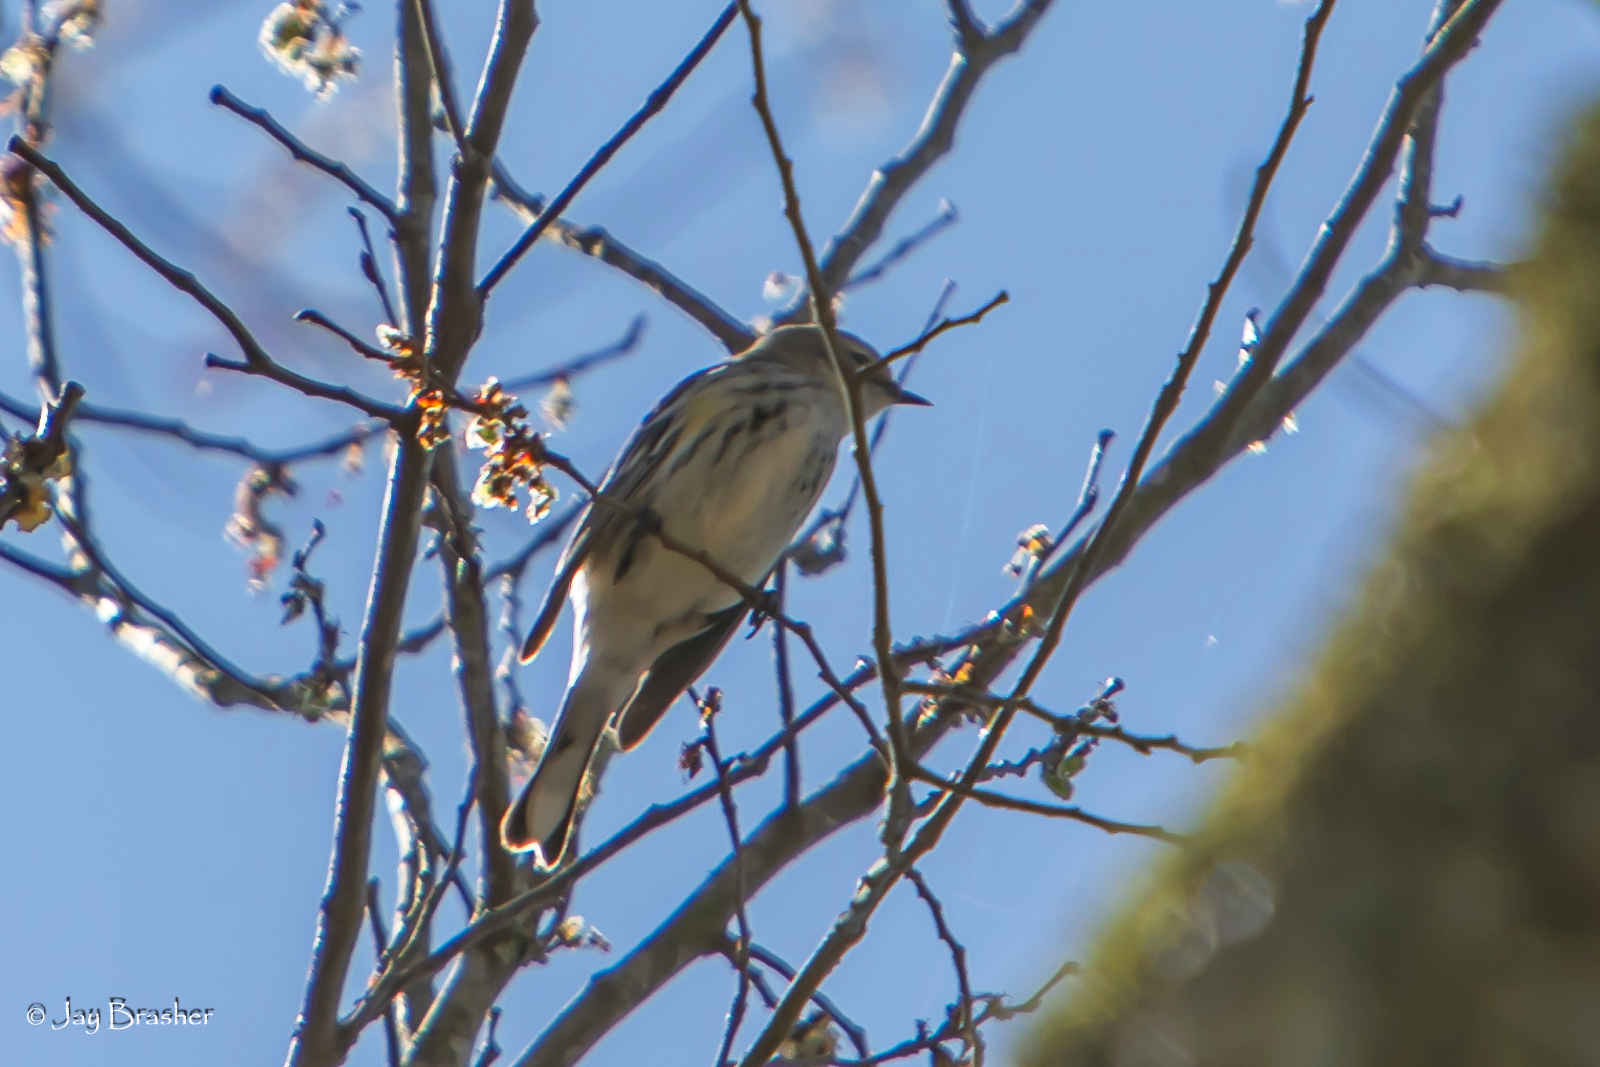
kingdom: Animalia
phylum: Chordata
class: Aves
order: Passeriformes
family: Parulidae
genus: Setophaga
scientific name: Setophaga coronata
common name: Myrtle warbler
